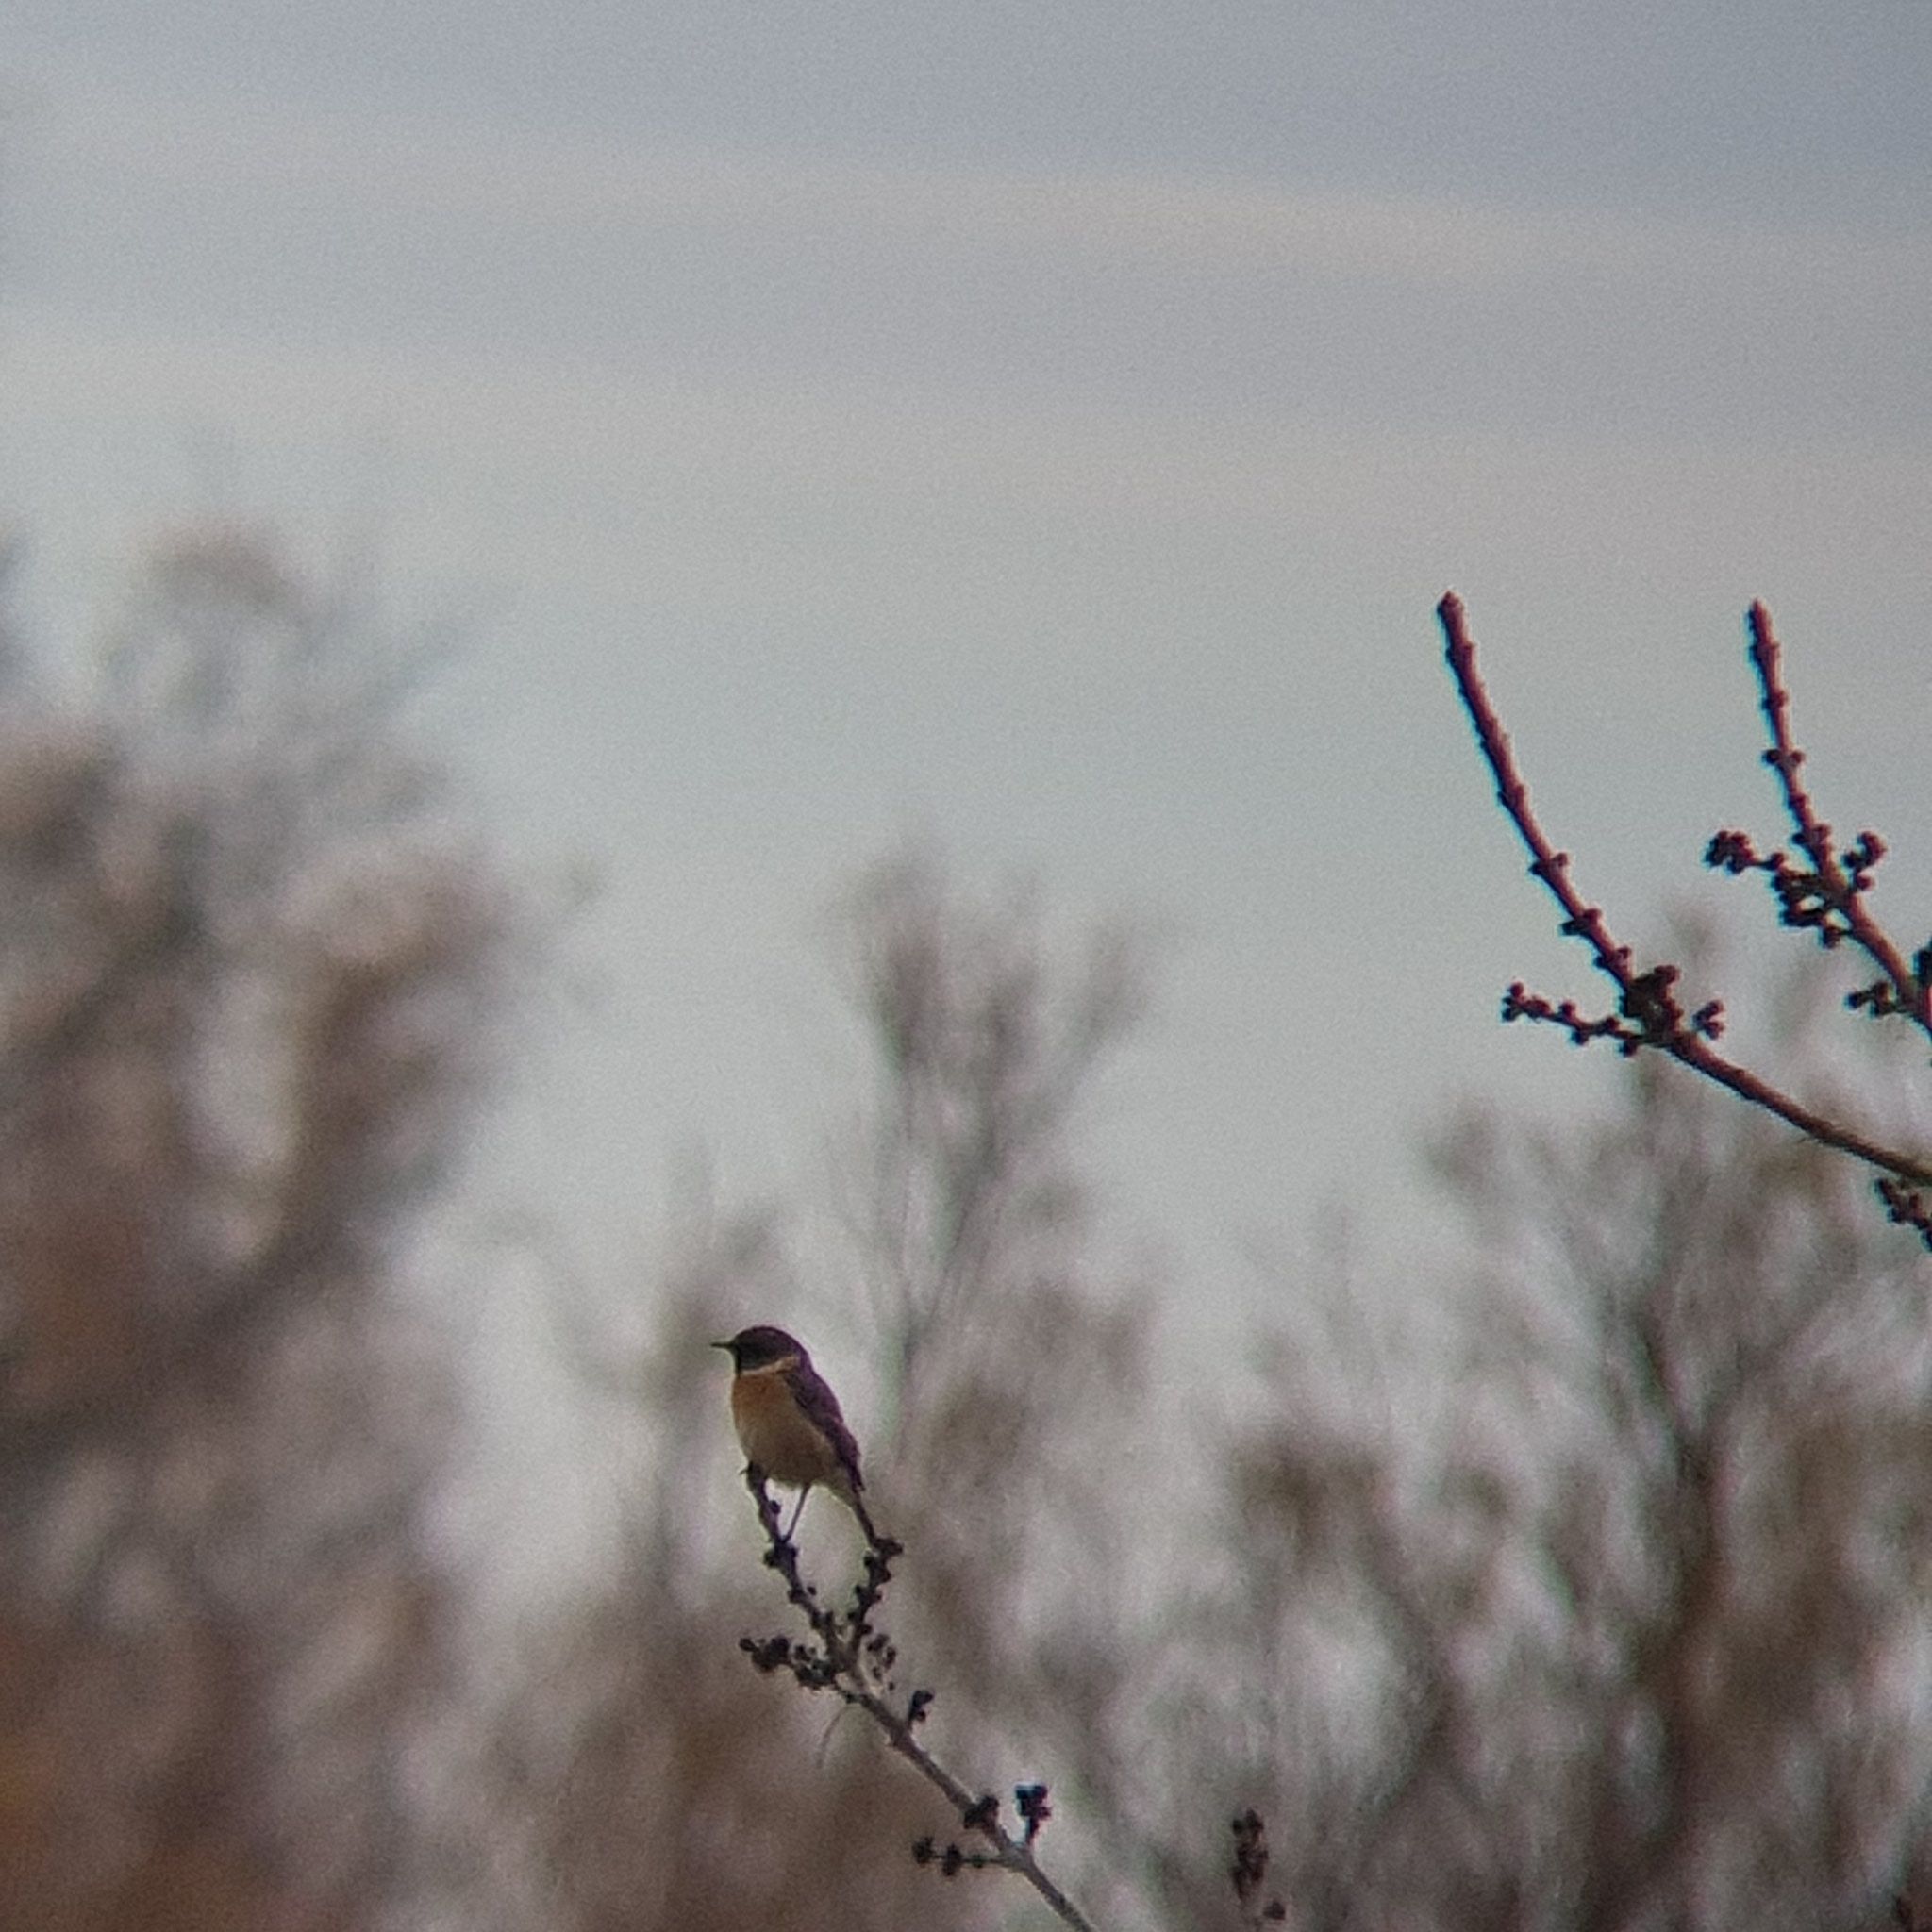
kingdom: Animalia
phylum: Chordata
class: Aves
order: Passeriformes
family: Muscicapidae
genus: Saxicola
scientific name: Saxicola rubicola
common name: European stonechat
